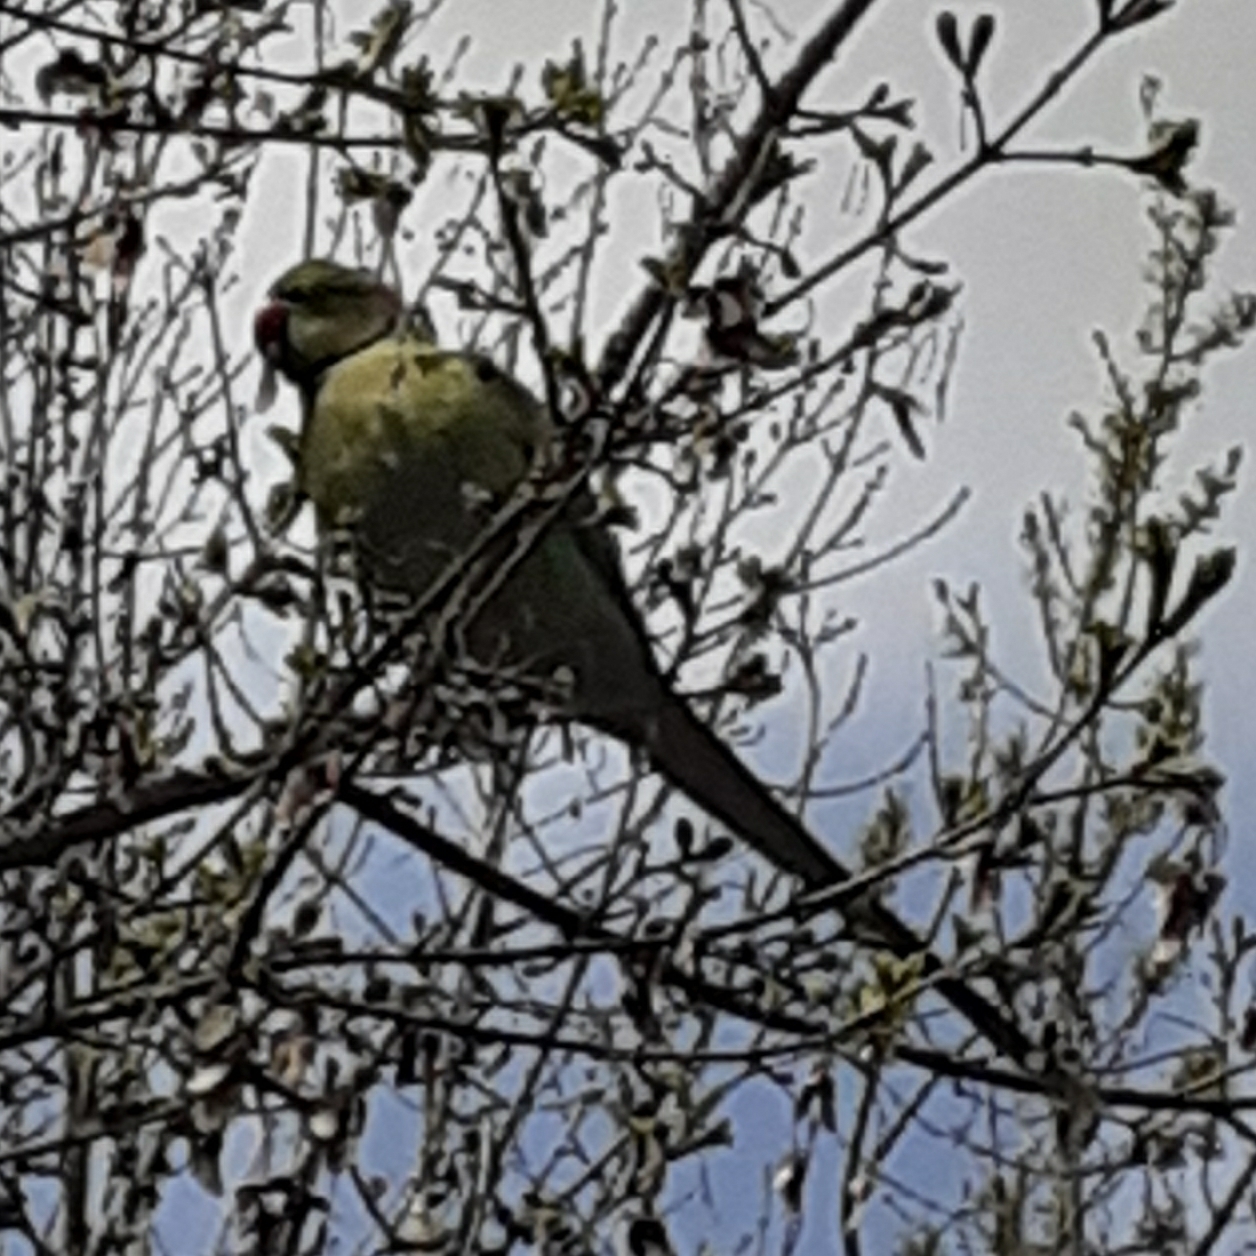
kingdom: Animalia
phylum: Chordata
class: Aves
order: Psittaciformes
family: Psittacidae
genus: Psittacula
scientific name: Psittacula krameri
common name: Rose-ringed parakeet
